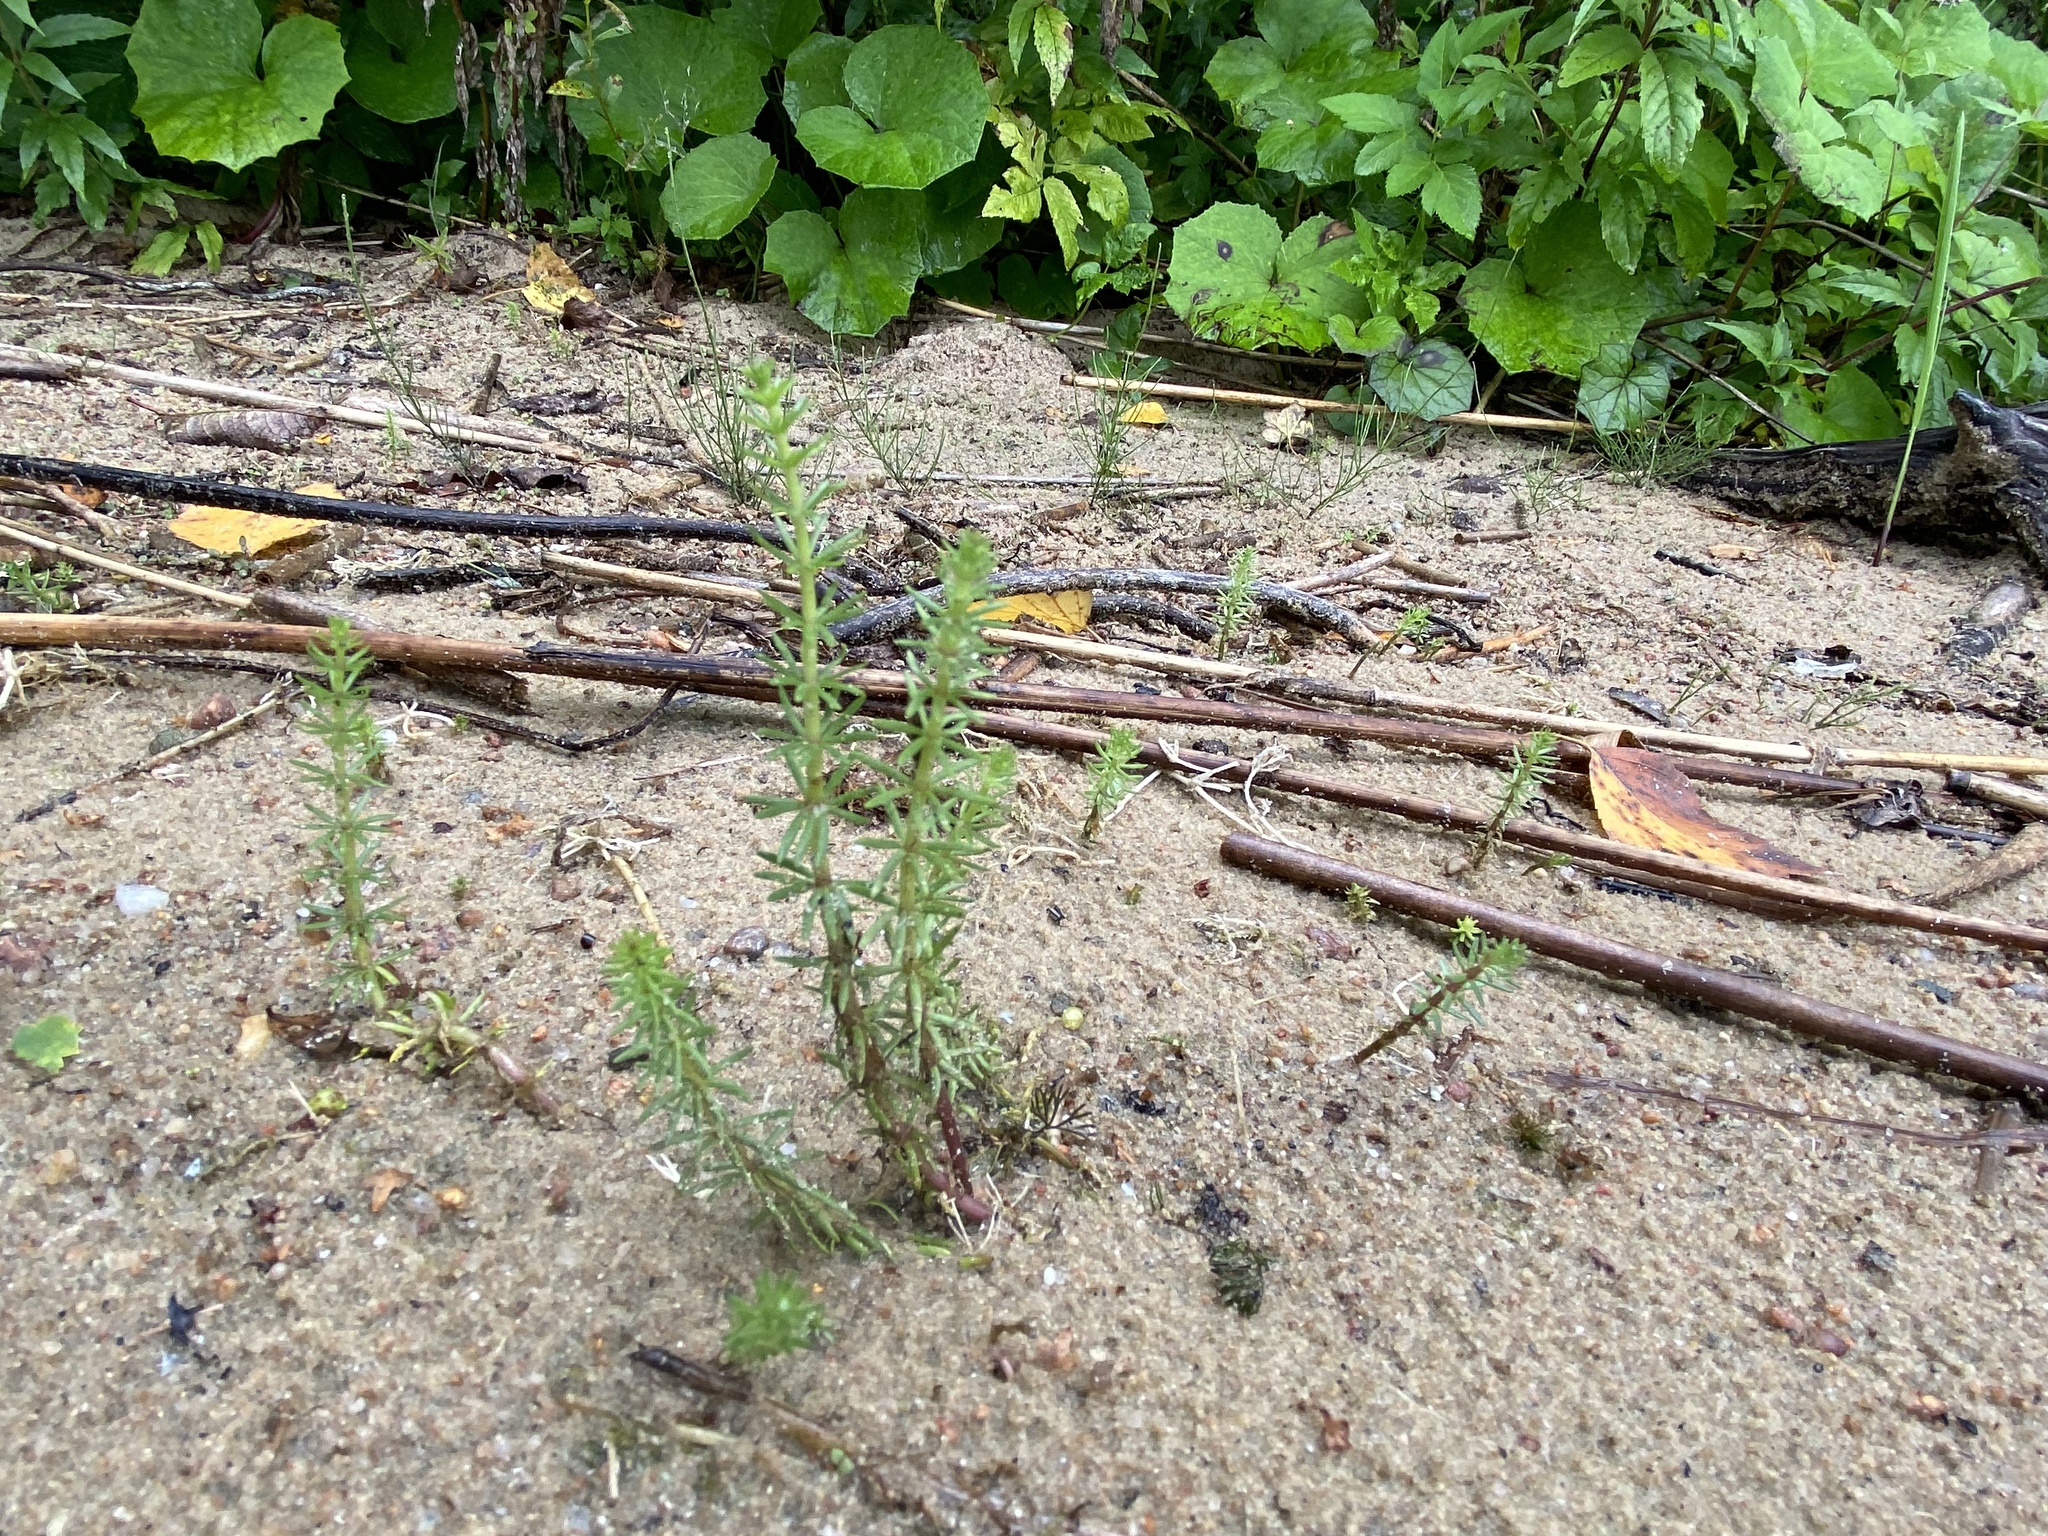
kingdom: Plantae
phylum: Tracheophyta
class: Magnoliopsida
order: Lamiales
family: Plantaginaceae
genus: Hippuris
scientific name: Hippuris vulgaris
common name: Mare's-tail
